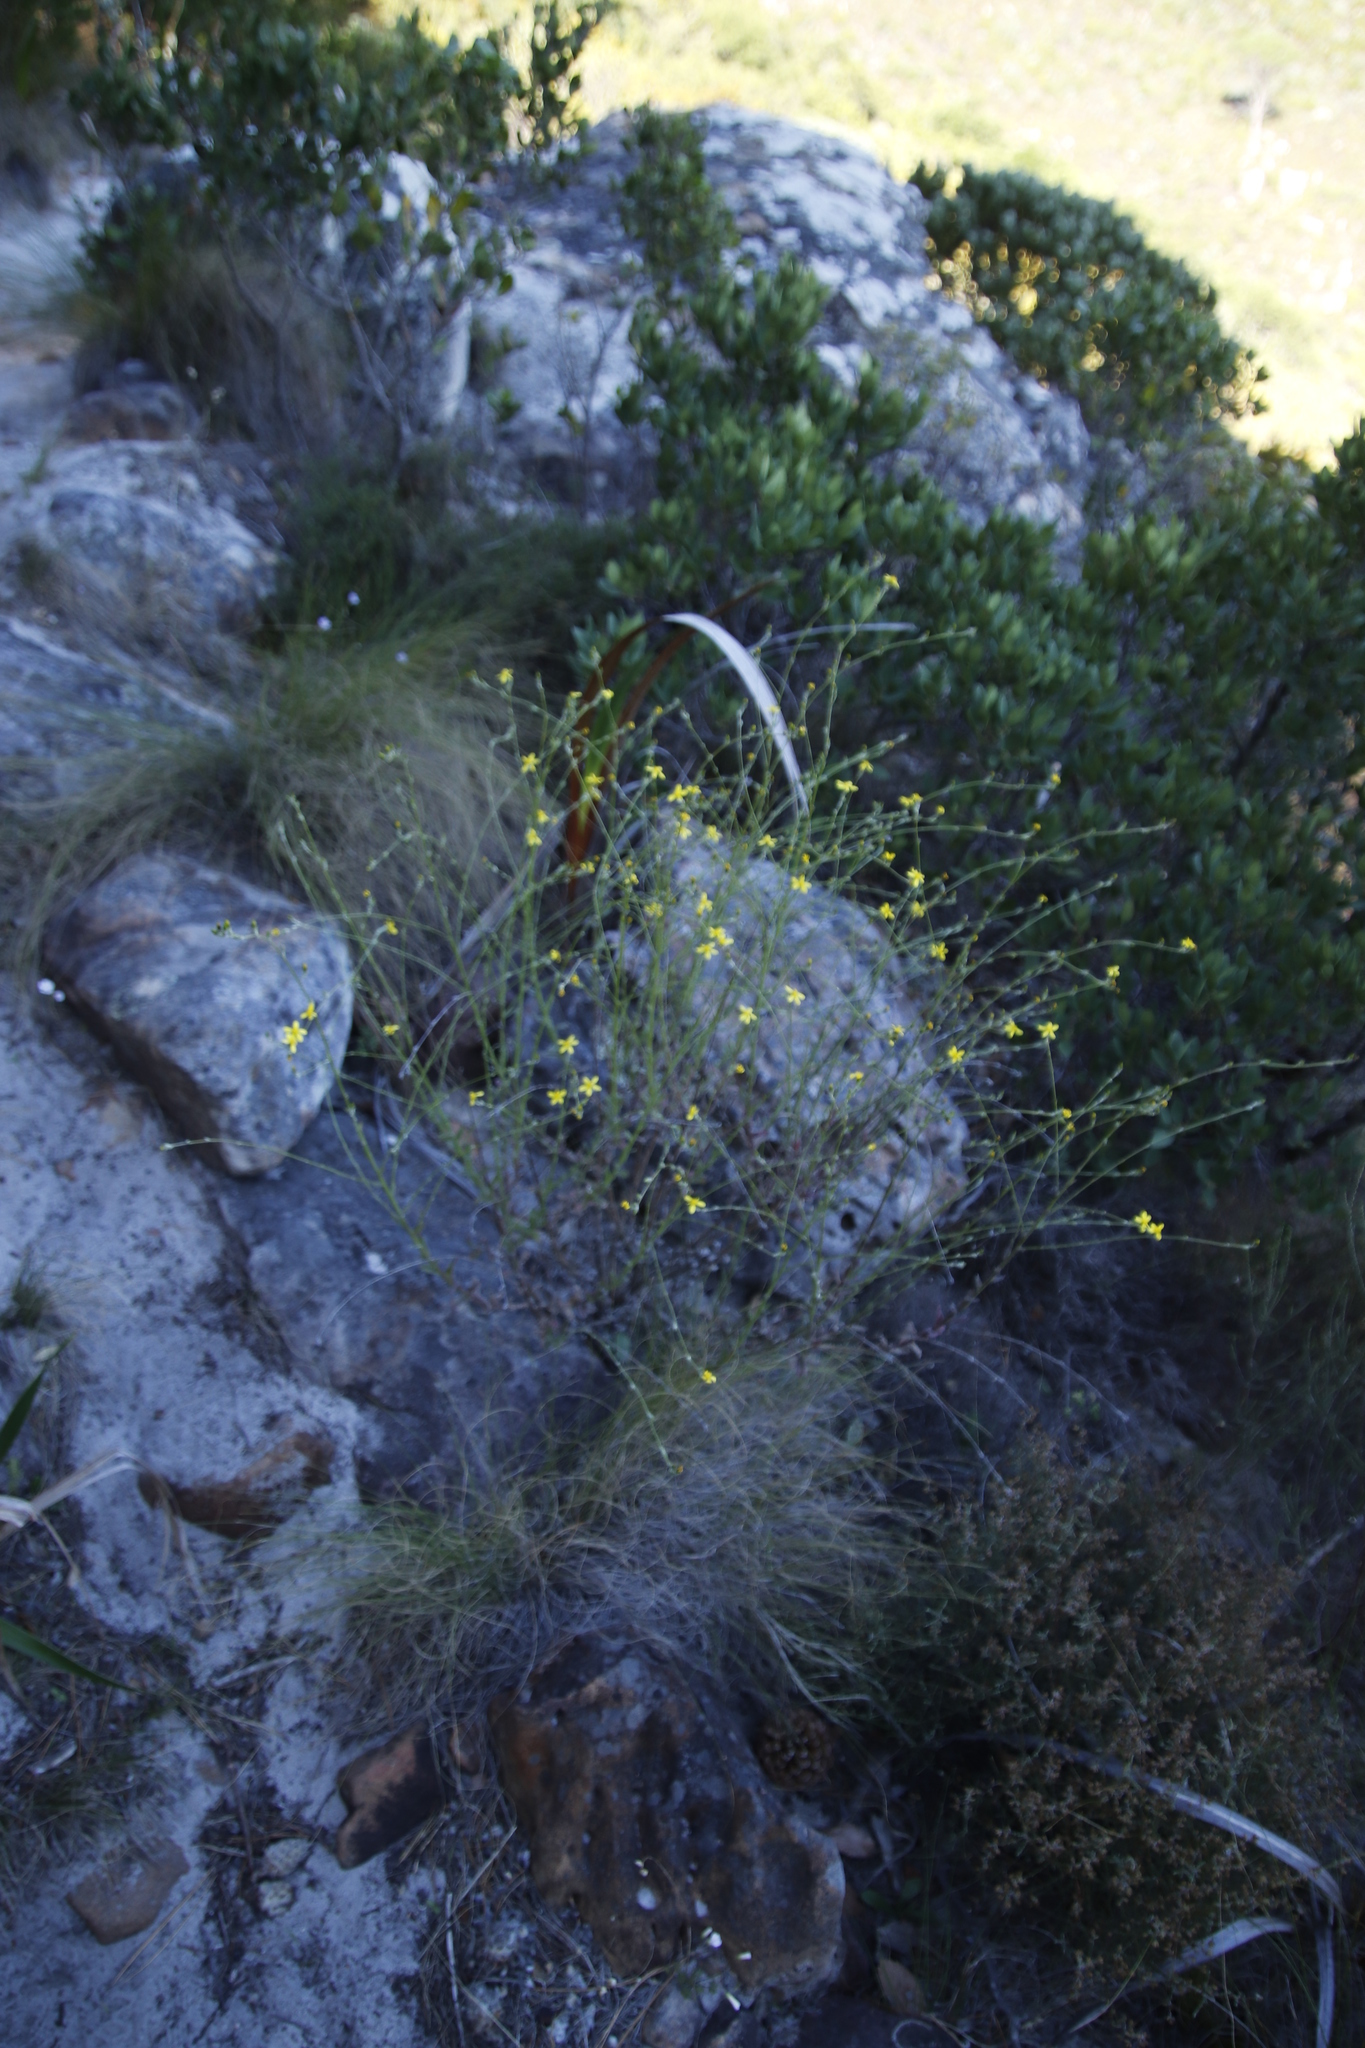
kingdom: Plantae
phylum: Tracheophyta
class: Magnoliopsida
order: Asterales
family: Asteraceae
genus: Senecio
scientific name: Senecio pubigerus
